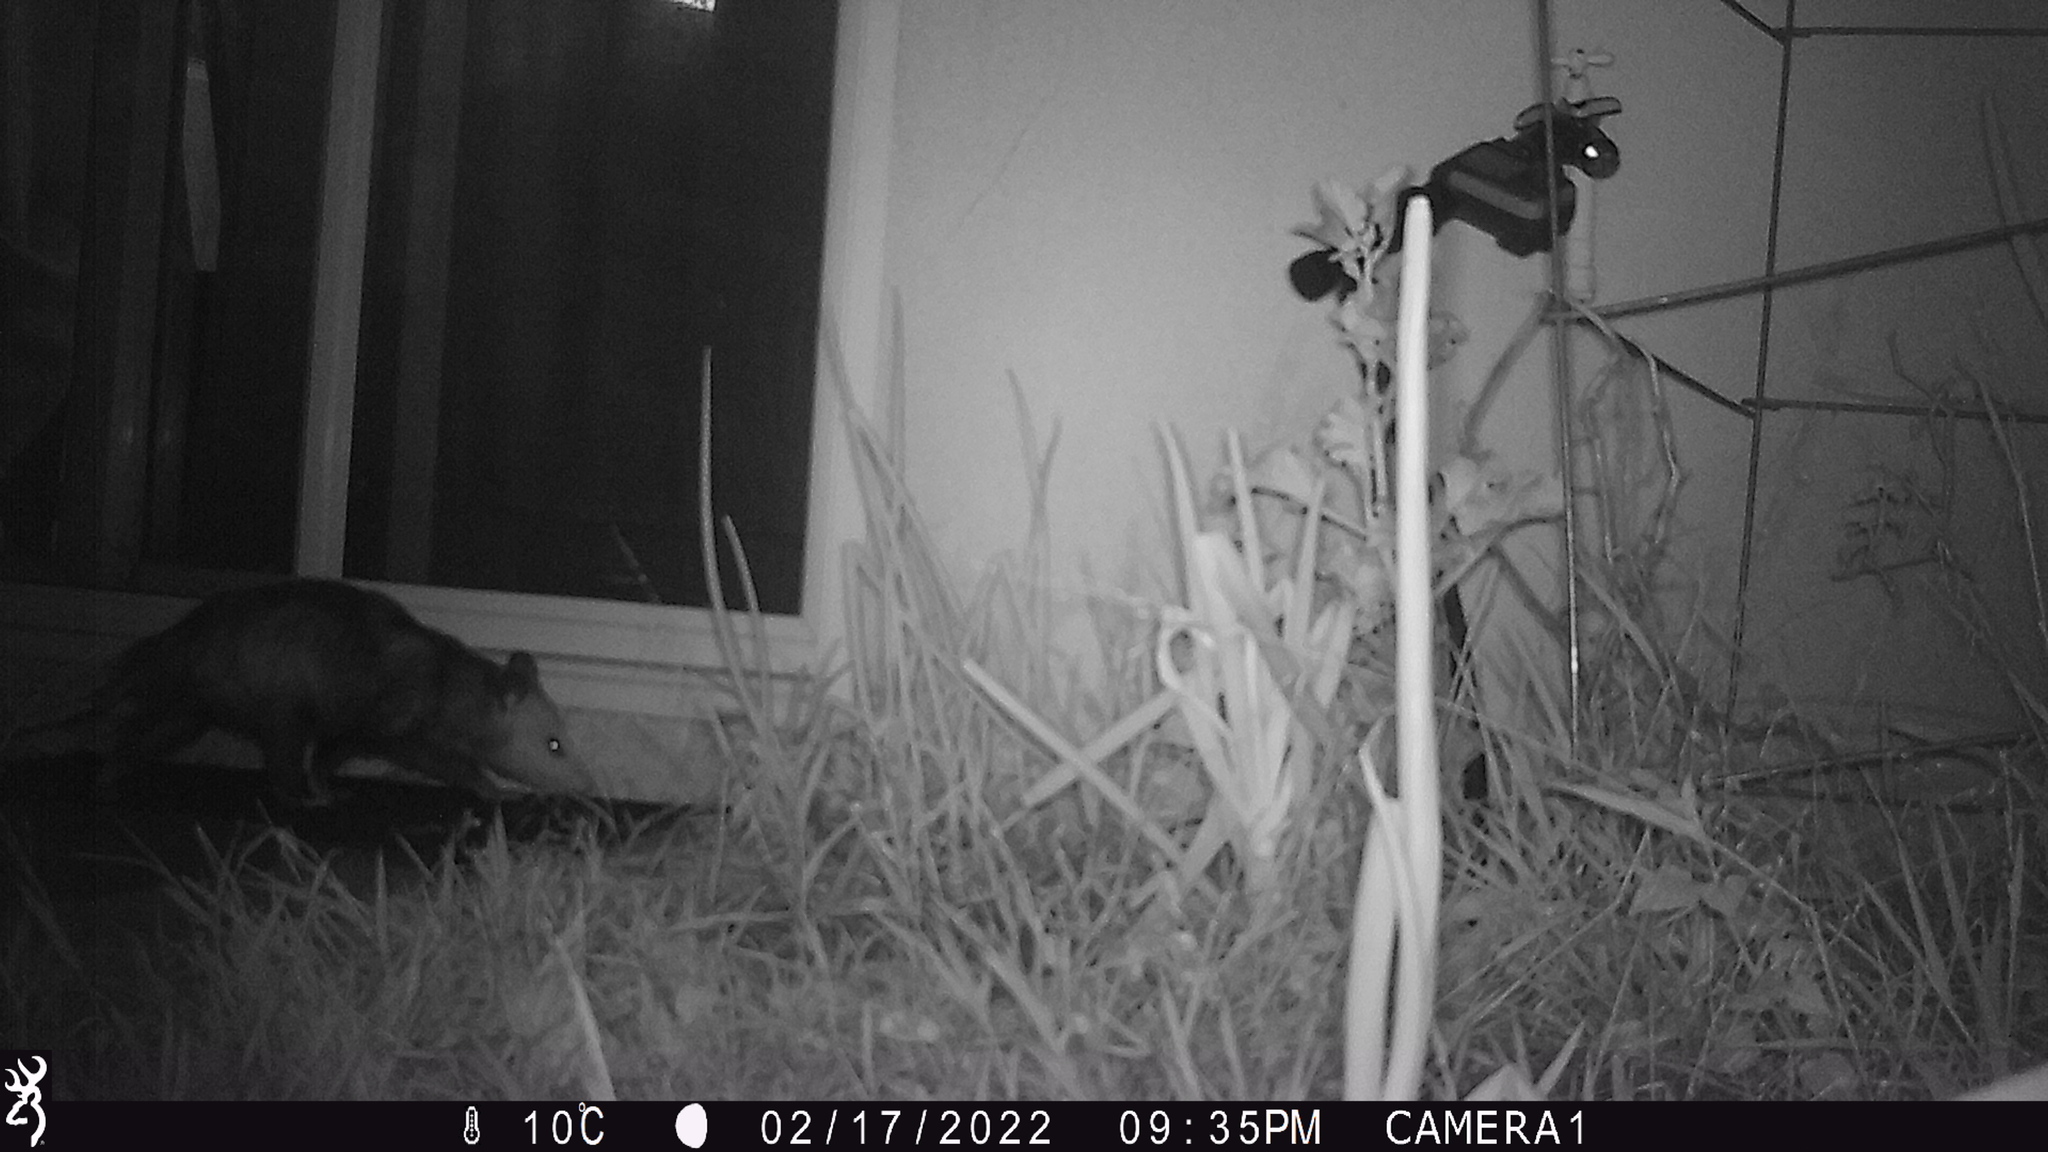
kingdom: Animalia
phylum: Chordata
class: Mammalia
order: Didelphimorphia
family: Didelphidae
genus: Didelphis
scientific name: Didelphis virginiana
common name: Virginia opossum
